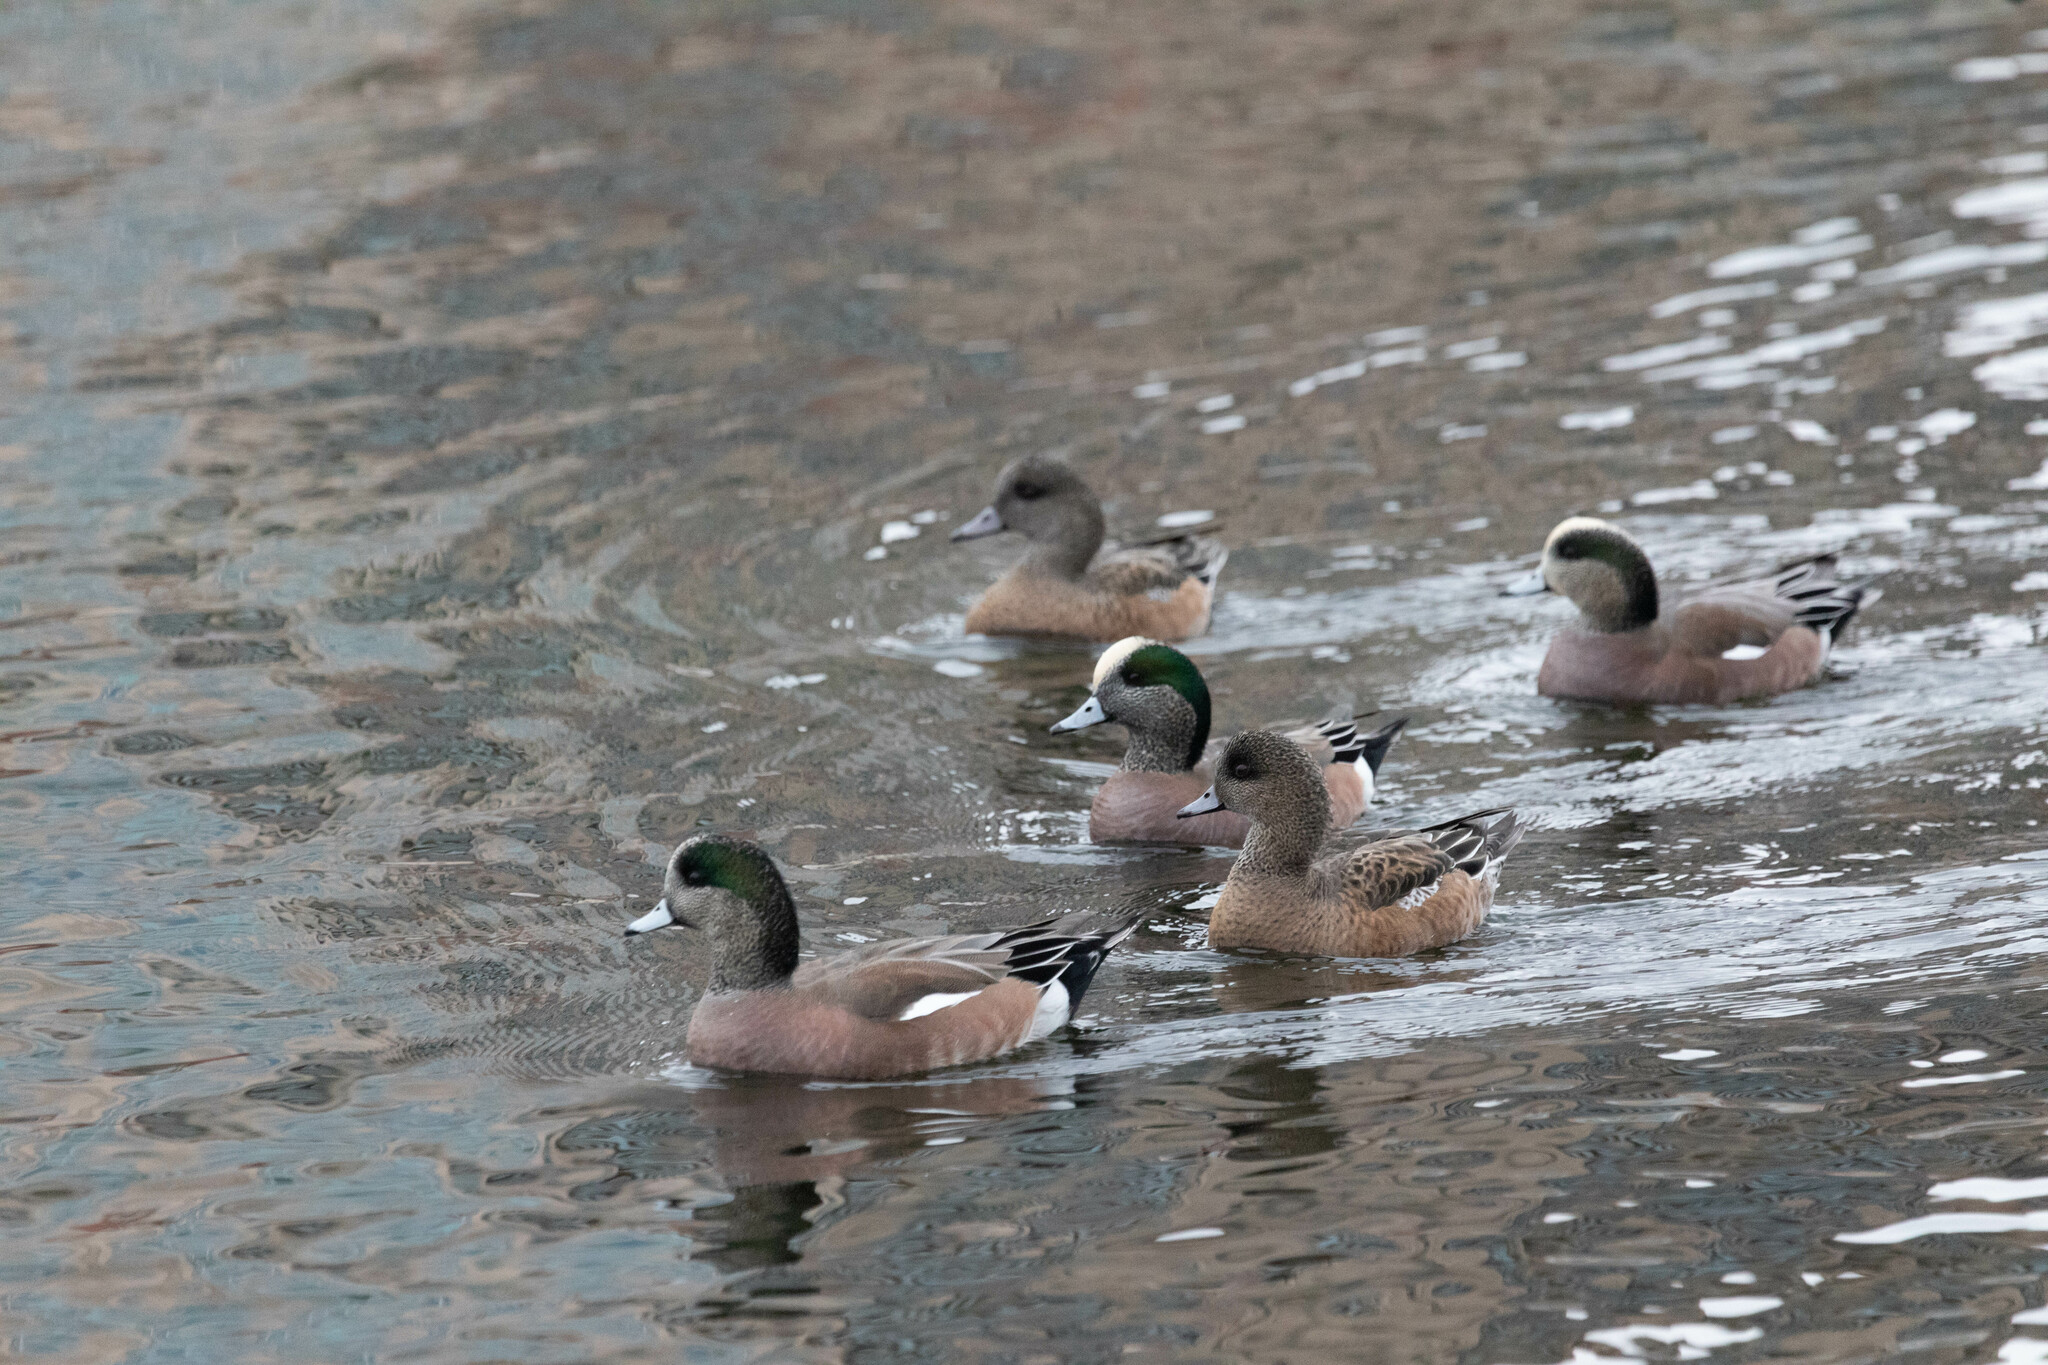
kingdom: Animalia
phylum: Chordata
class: Aves
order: Anseriformes
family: Anatidae
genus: Mareca
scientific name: Mareca americana
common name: American wigeon
